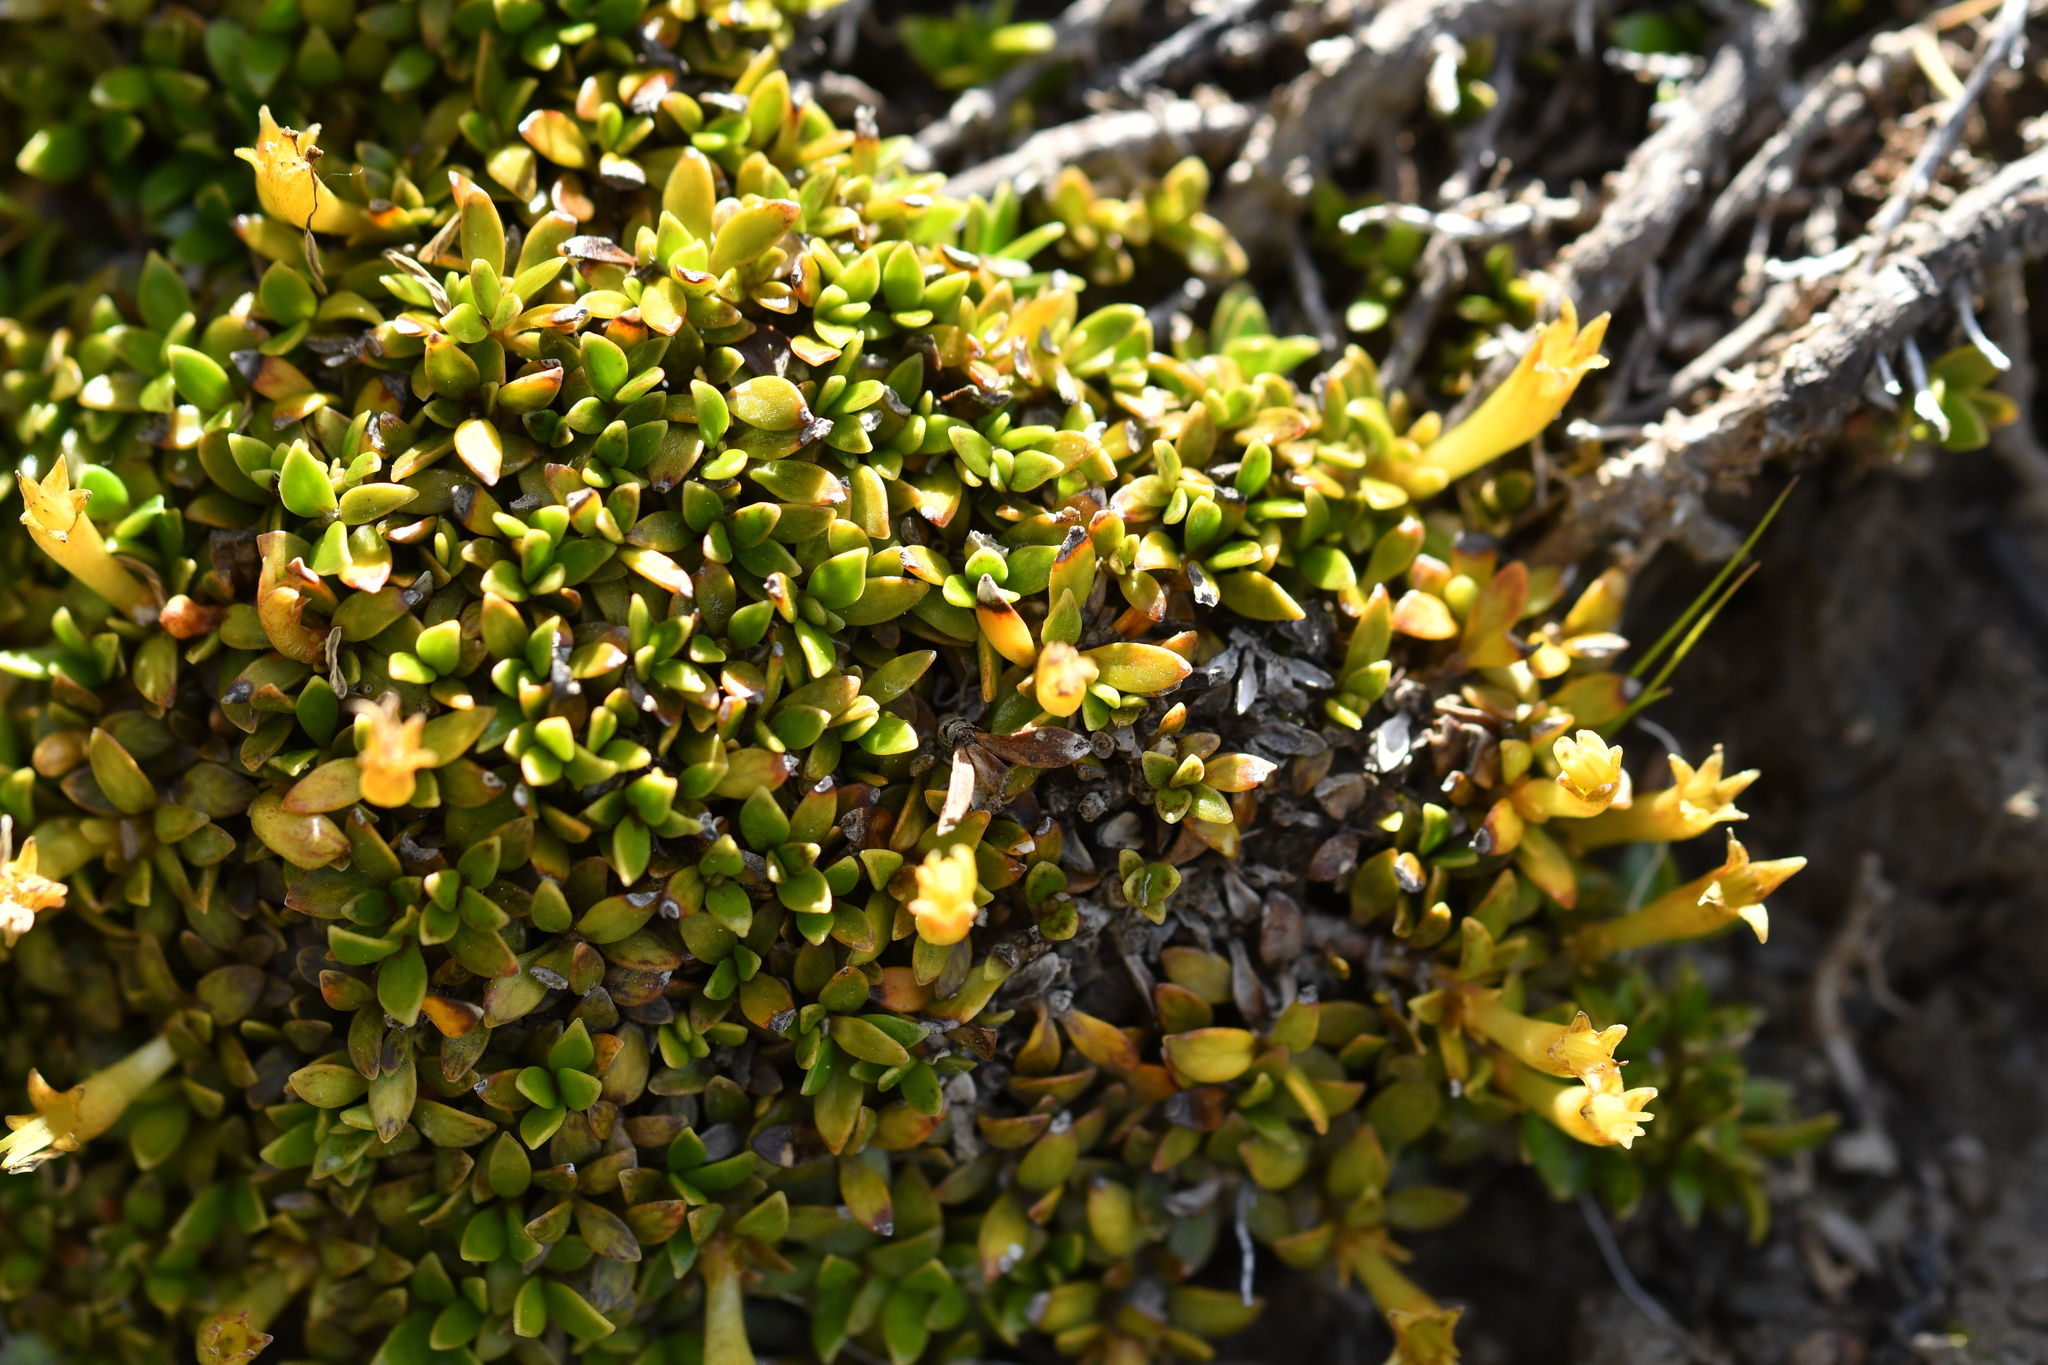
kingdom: Plantae
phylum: Tracheophyta
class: Magnoliopsida
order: Celastrales
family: Celastraceae
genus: Stackhousia
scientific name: Stackhousia minima
